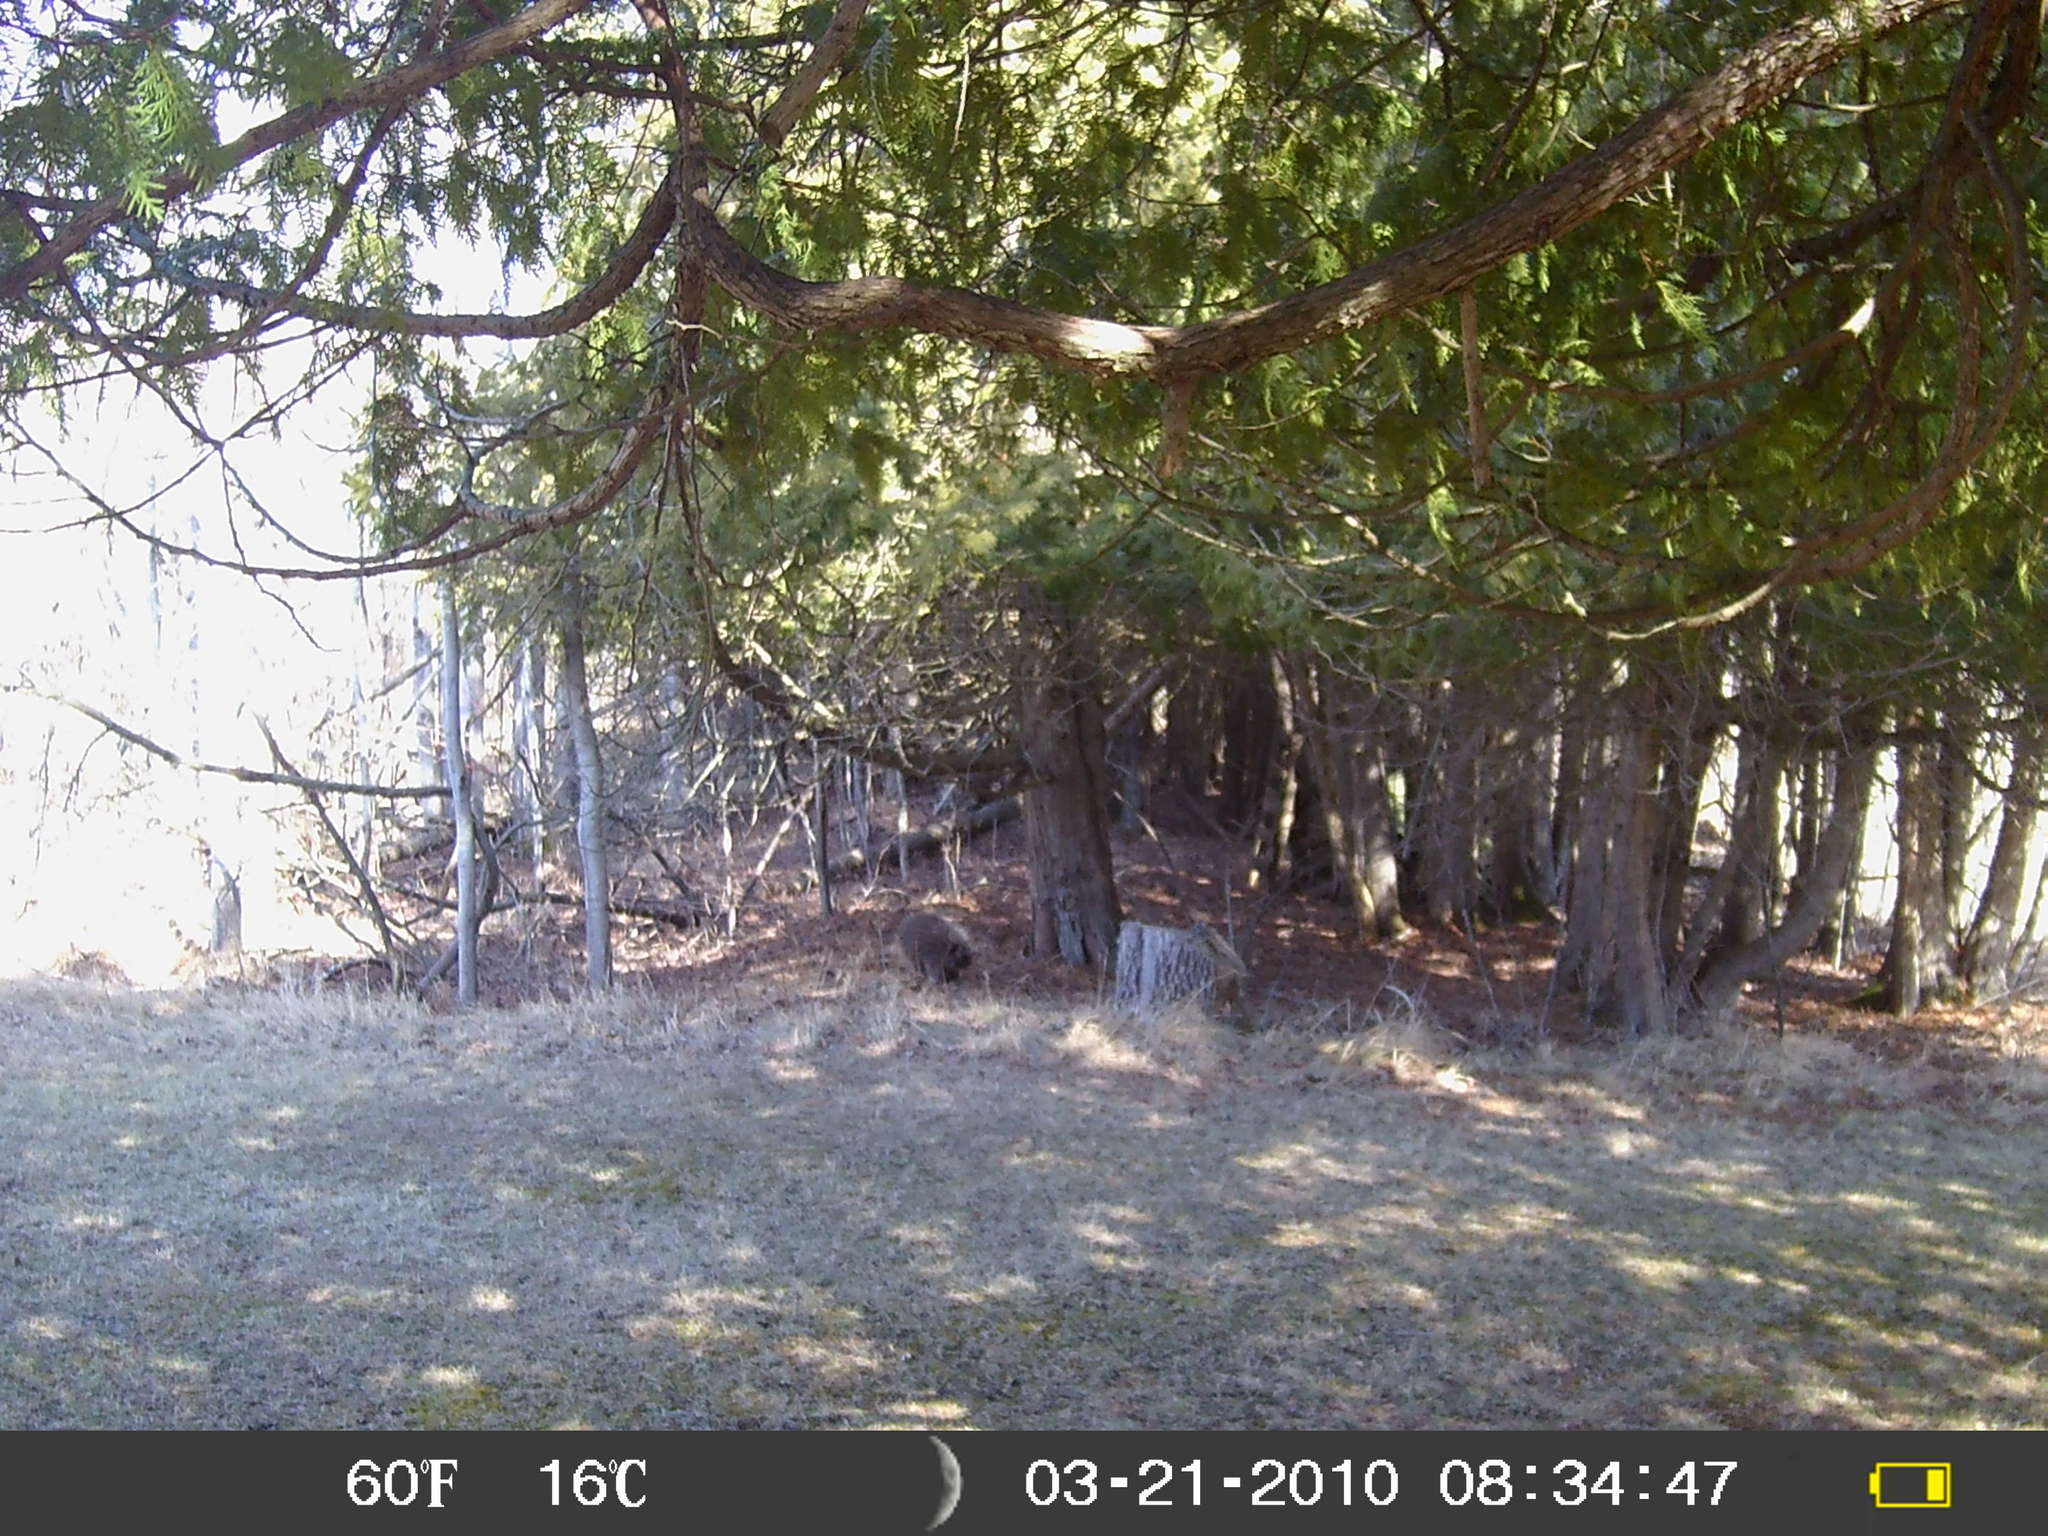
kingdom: Animalia
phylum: Chordata
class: Mammalia
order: Rodentia
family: Erethizontidae
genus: Erethizon
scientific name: Erethizon dorsatus
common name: North american porcupine
